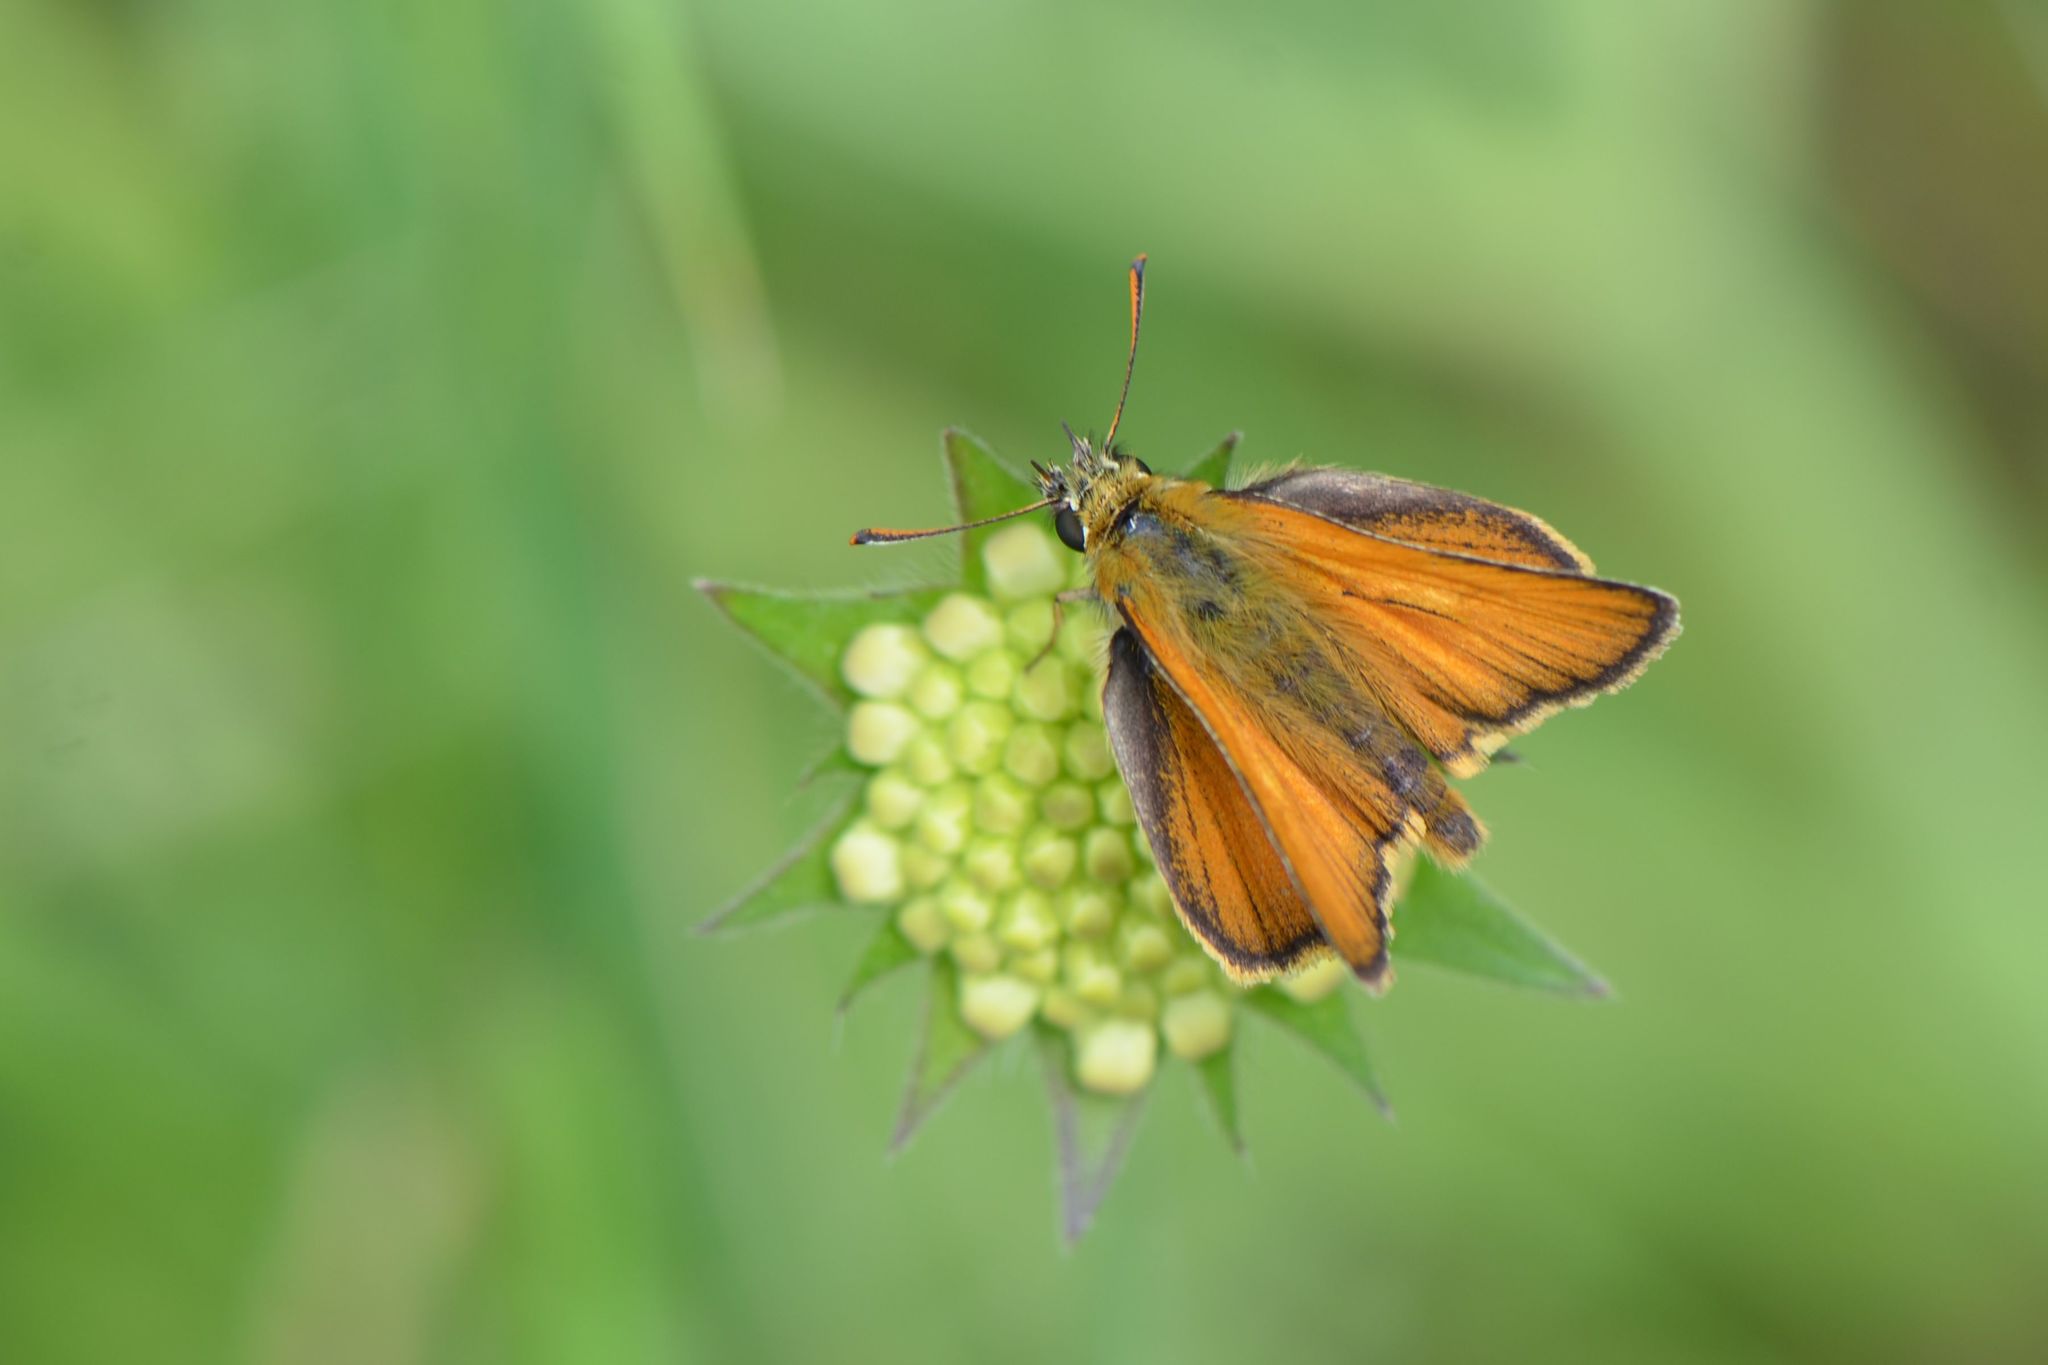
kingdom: Animalia
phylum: Arthropoda
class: Insecta
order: Lepidoptera
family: Hesperiidae
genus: Thymelicus
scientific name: Thymelicus sylvestris
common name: Small skipper
